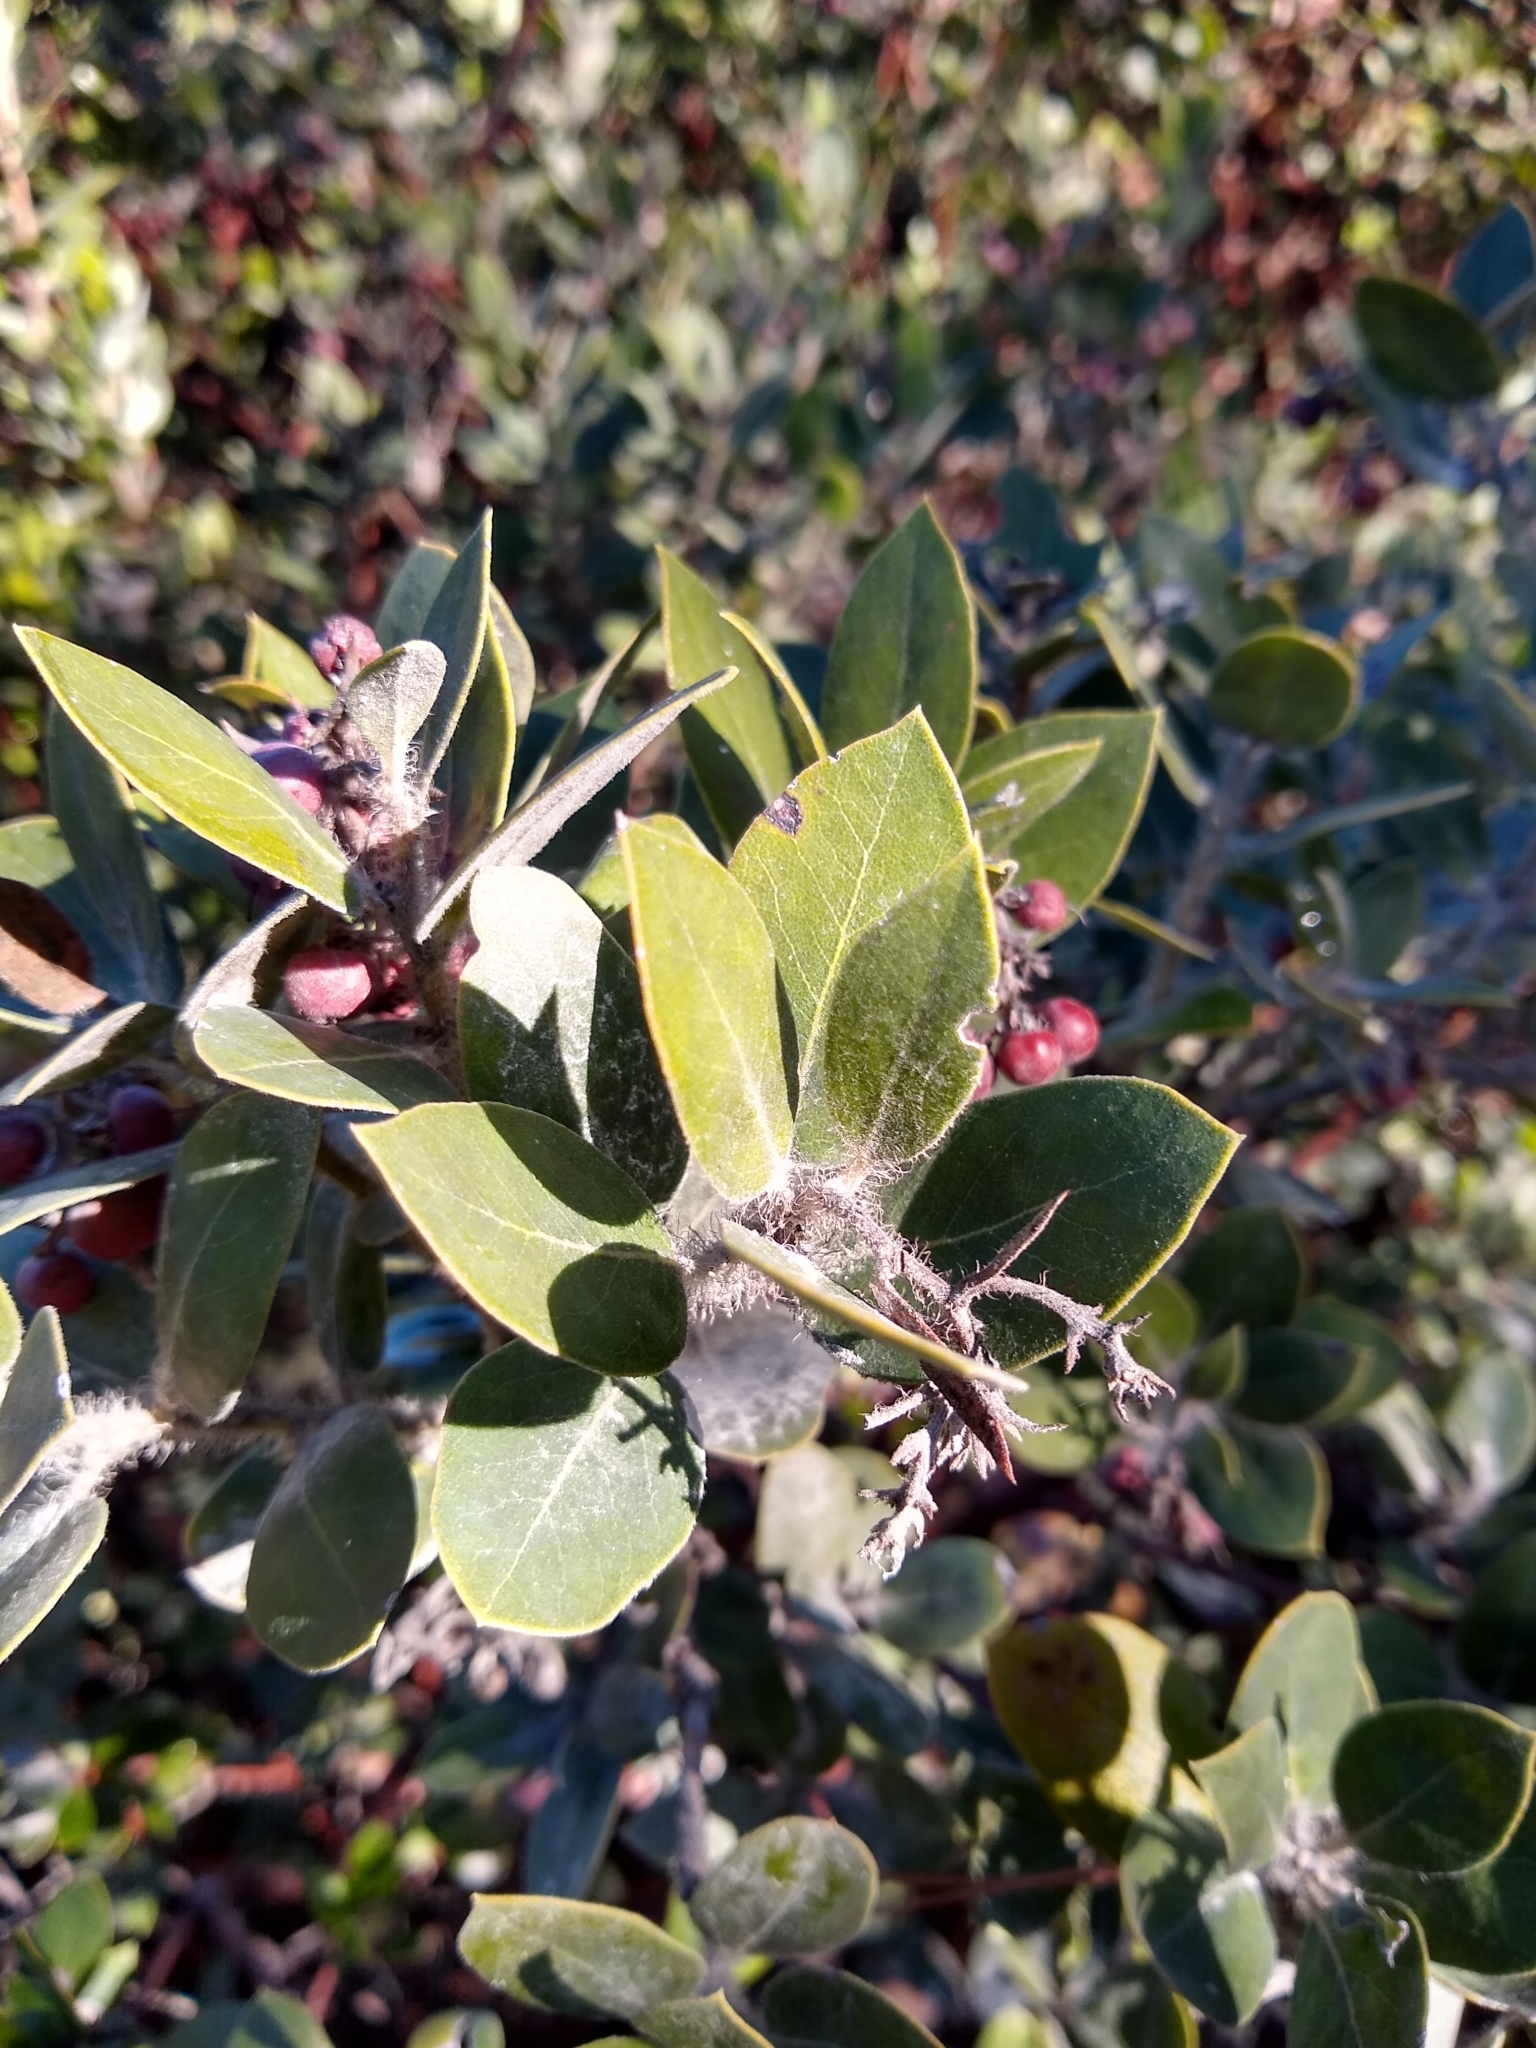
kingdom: Plantae
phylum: Tracheophyta
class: Magnoliopsida
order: Ericales
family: Ericaceae
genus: Arctostaphylos
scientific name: Arctostaphylos crustacea
